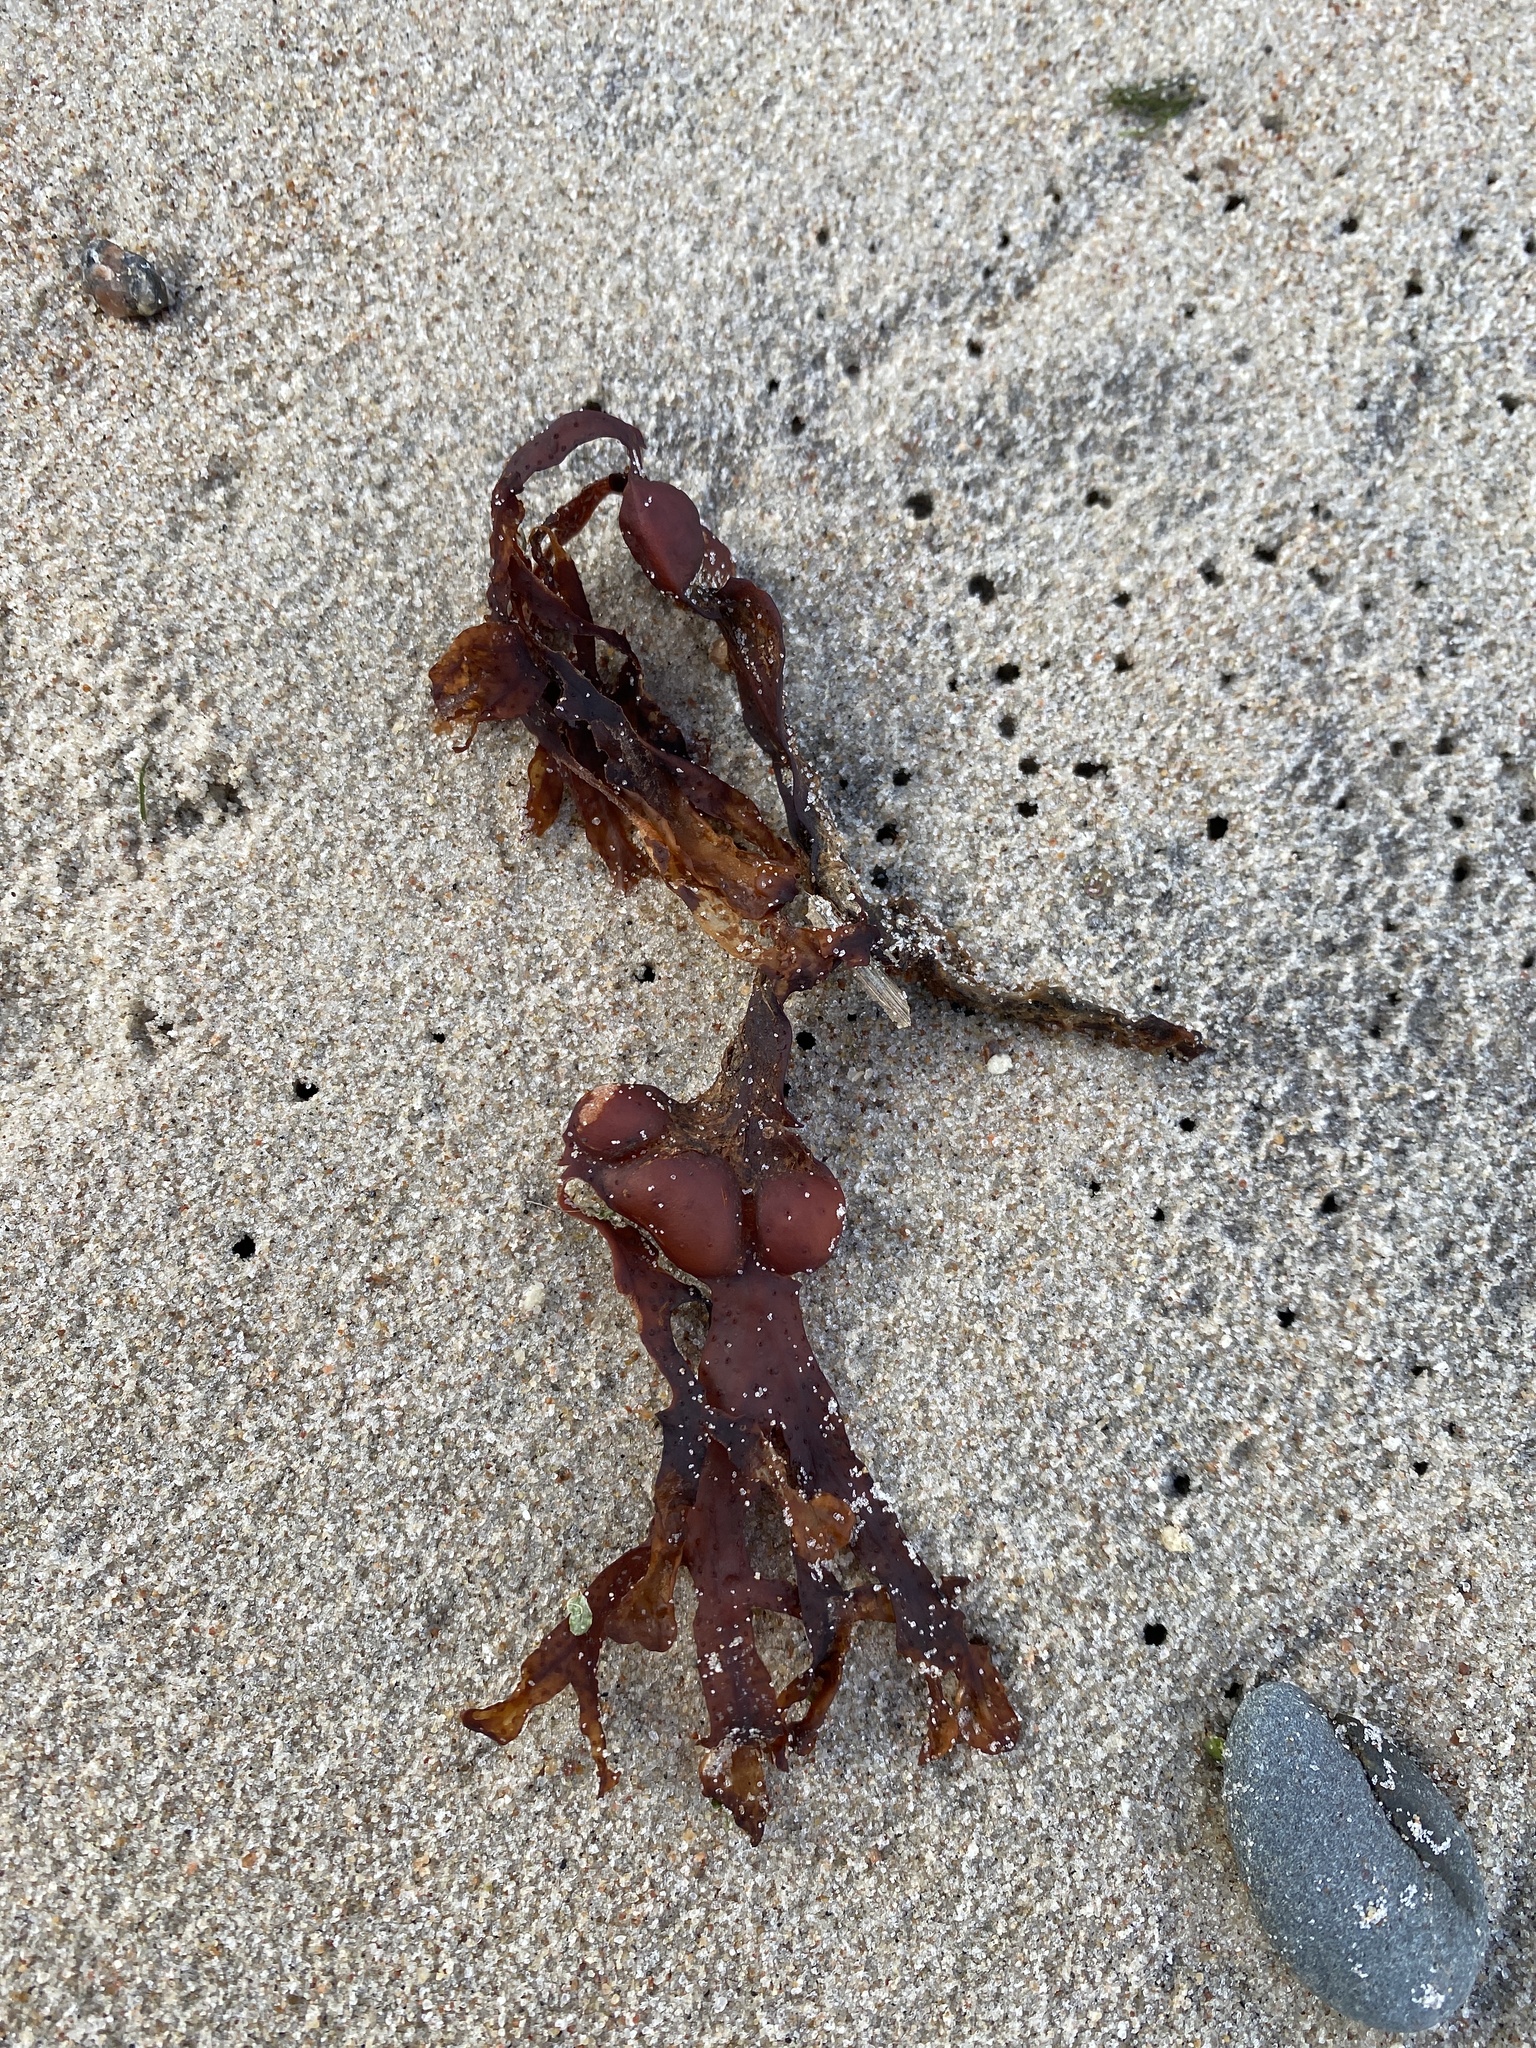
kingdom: Chromista
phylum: Ochrophyta
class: Phaeophyceae
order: Fucales
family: Fucaceae
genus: Fucus
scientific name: Fucus vesiculosus
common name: Bladder wrack
